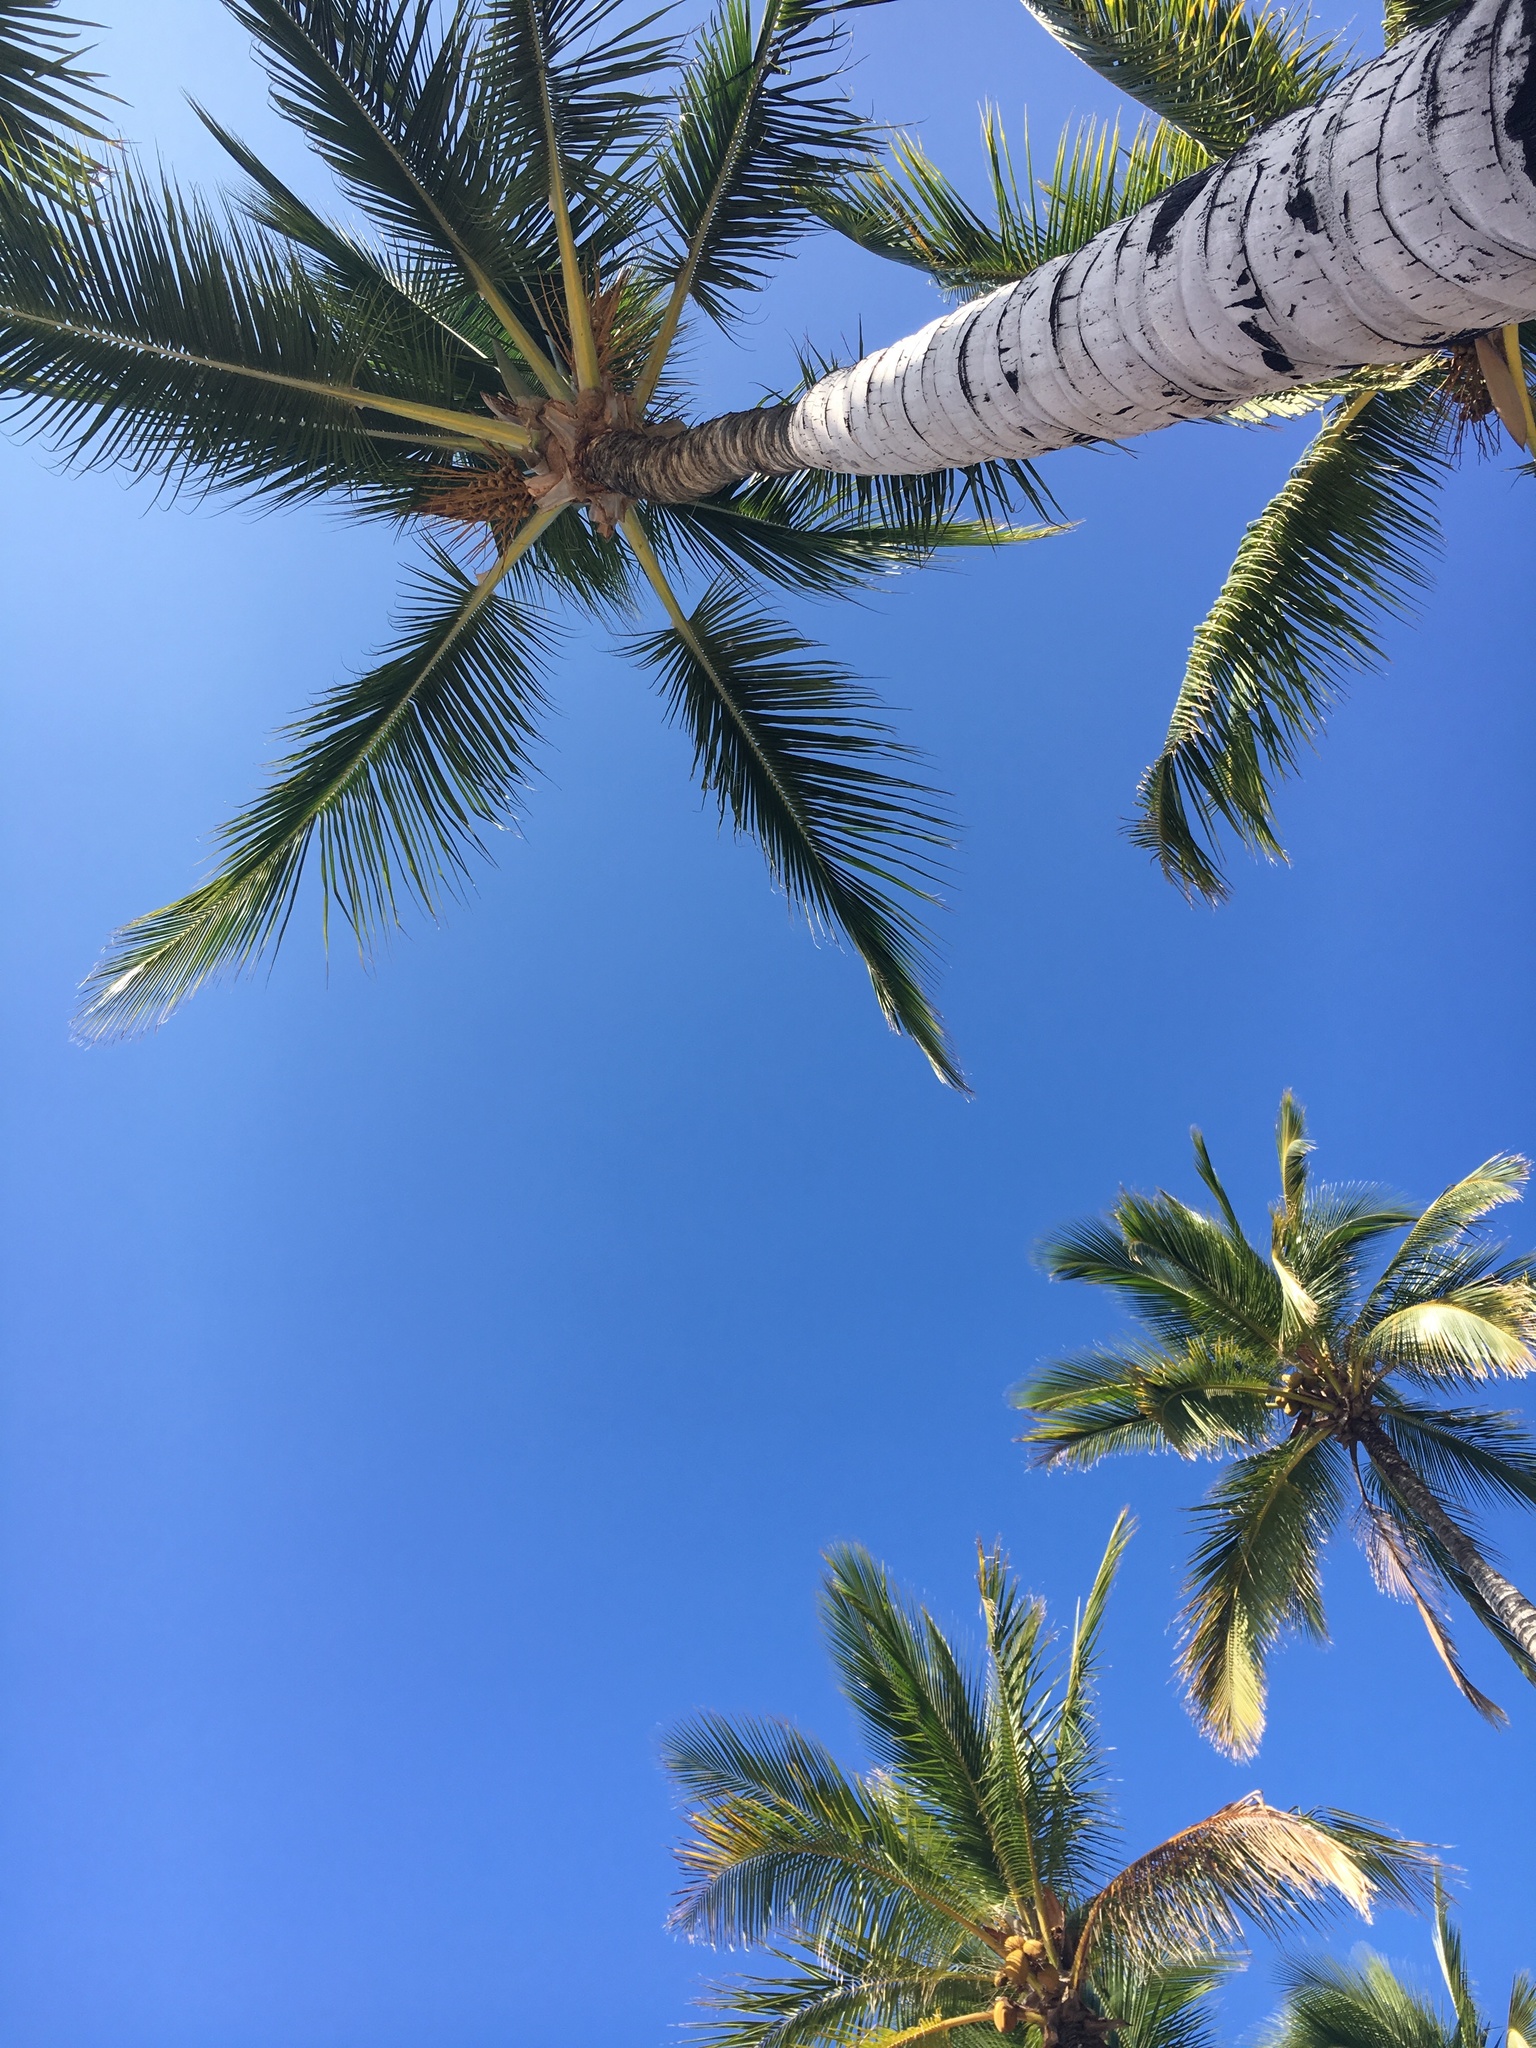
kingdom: Plantae
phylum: Tracheophyta
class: Liliopsida
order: Arecales
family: Arecaceae
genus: Cocos
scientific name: Cocos nucifera
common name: Coconut palm
